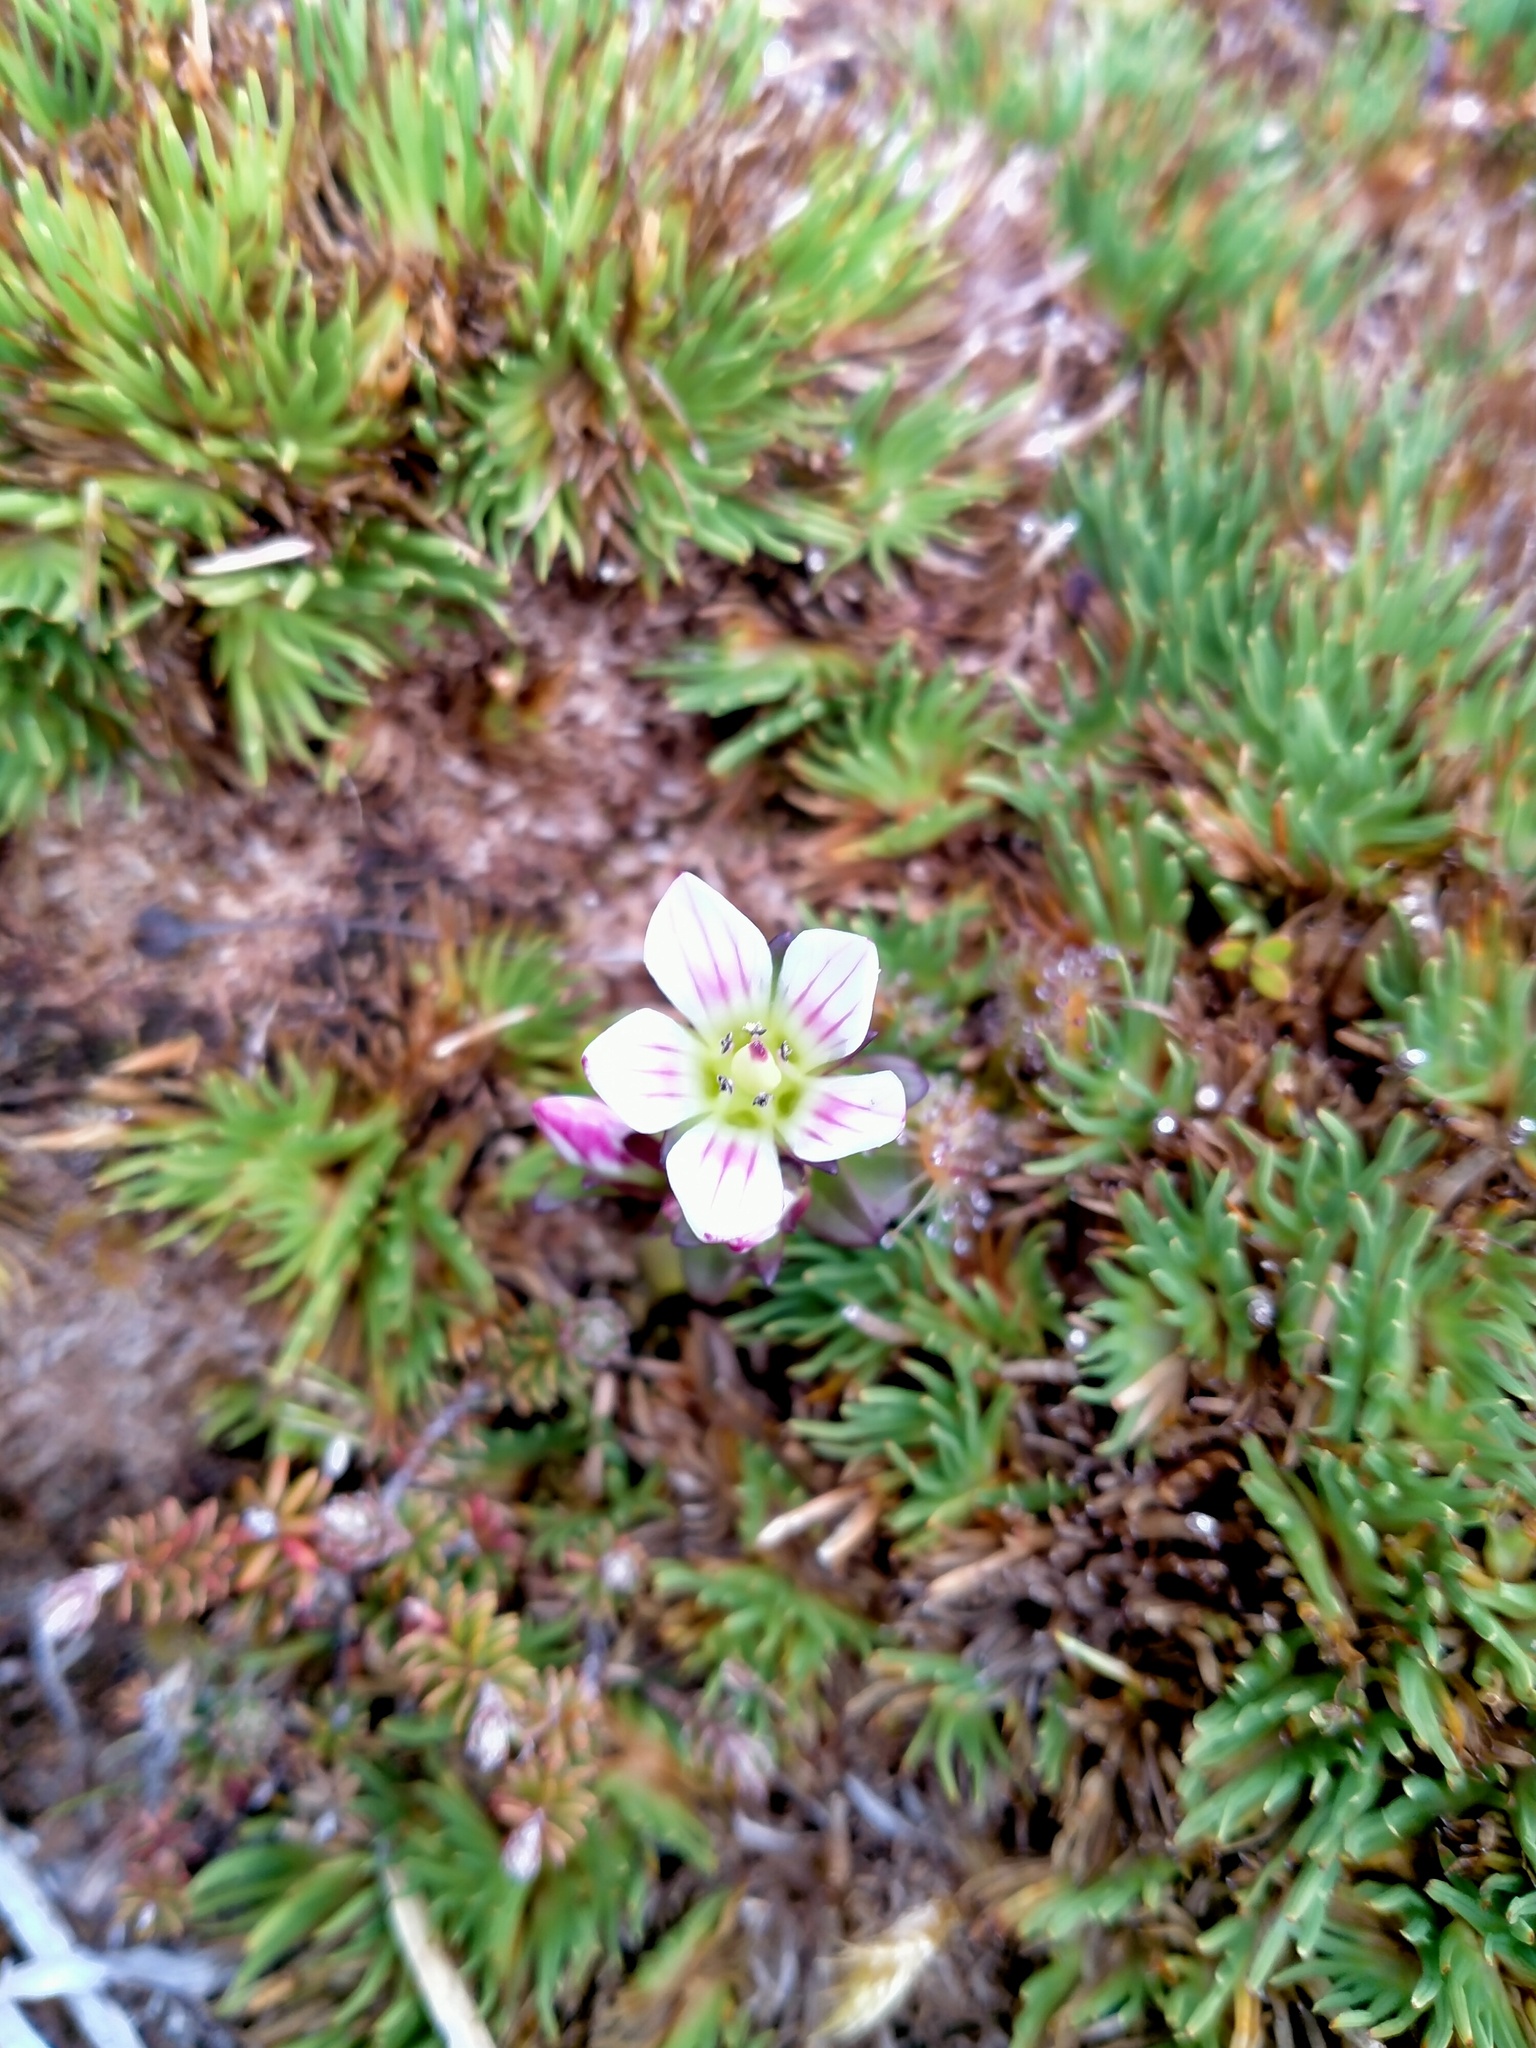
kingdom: Plantae
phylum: Tracheophyta
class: Magnoliopsida
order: Gentianales
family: Gentianaceae
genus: Gentianella
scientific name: Gentianella concinna
